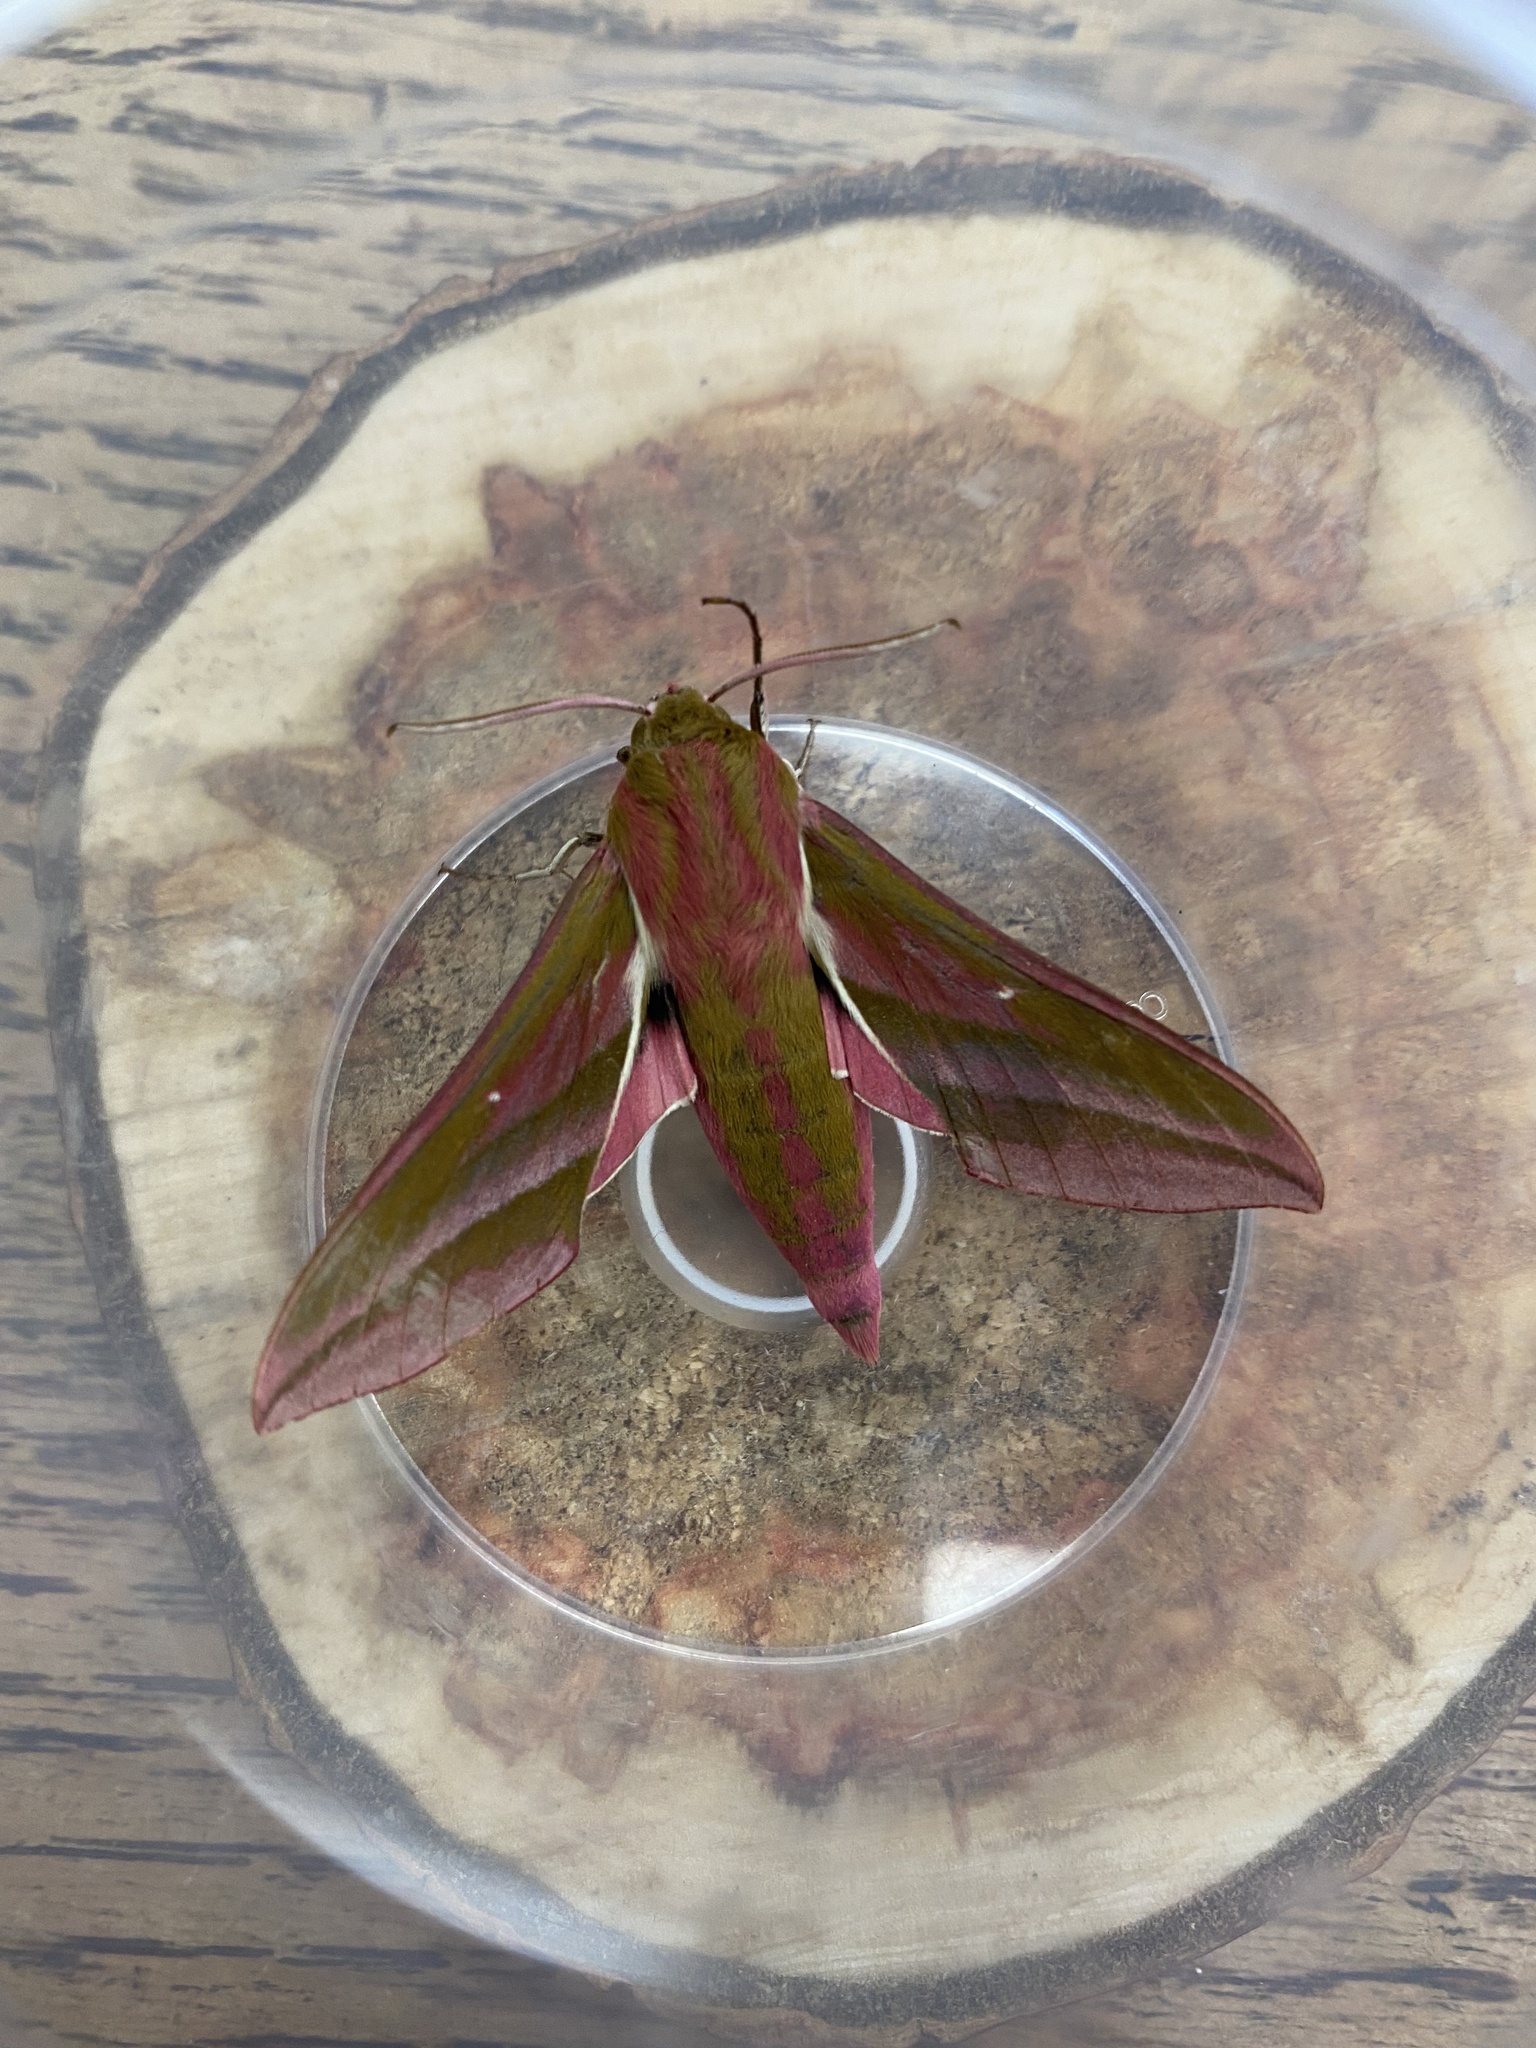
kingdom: Animalia
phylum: Arthropoda
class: Insecta
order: Lepidoptera
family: Sphingidae
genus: Deilephila
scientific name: Deilephila elpenor
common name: Elephant hawk-moth
